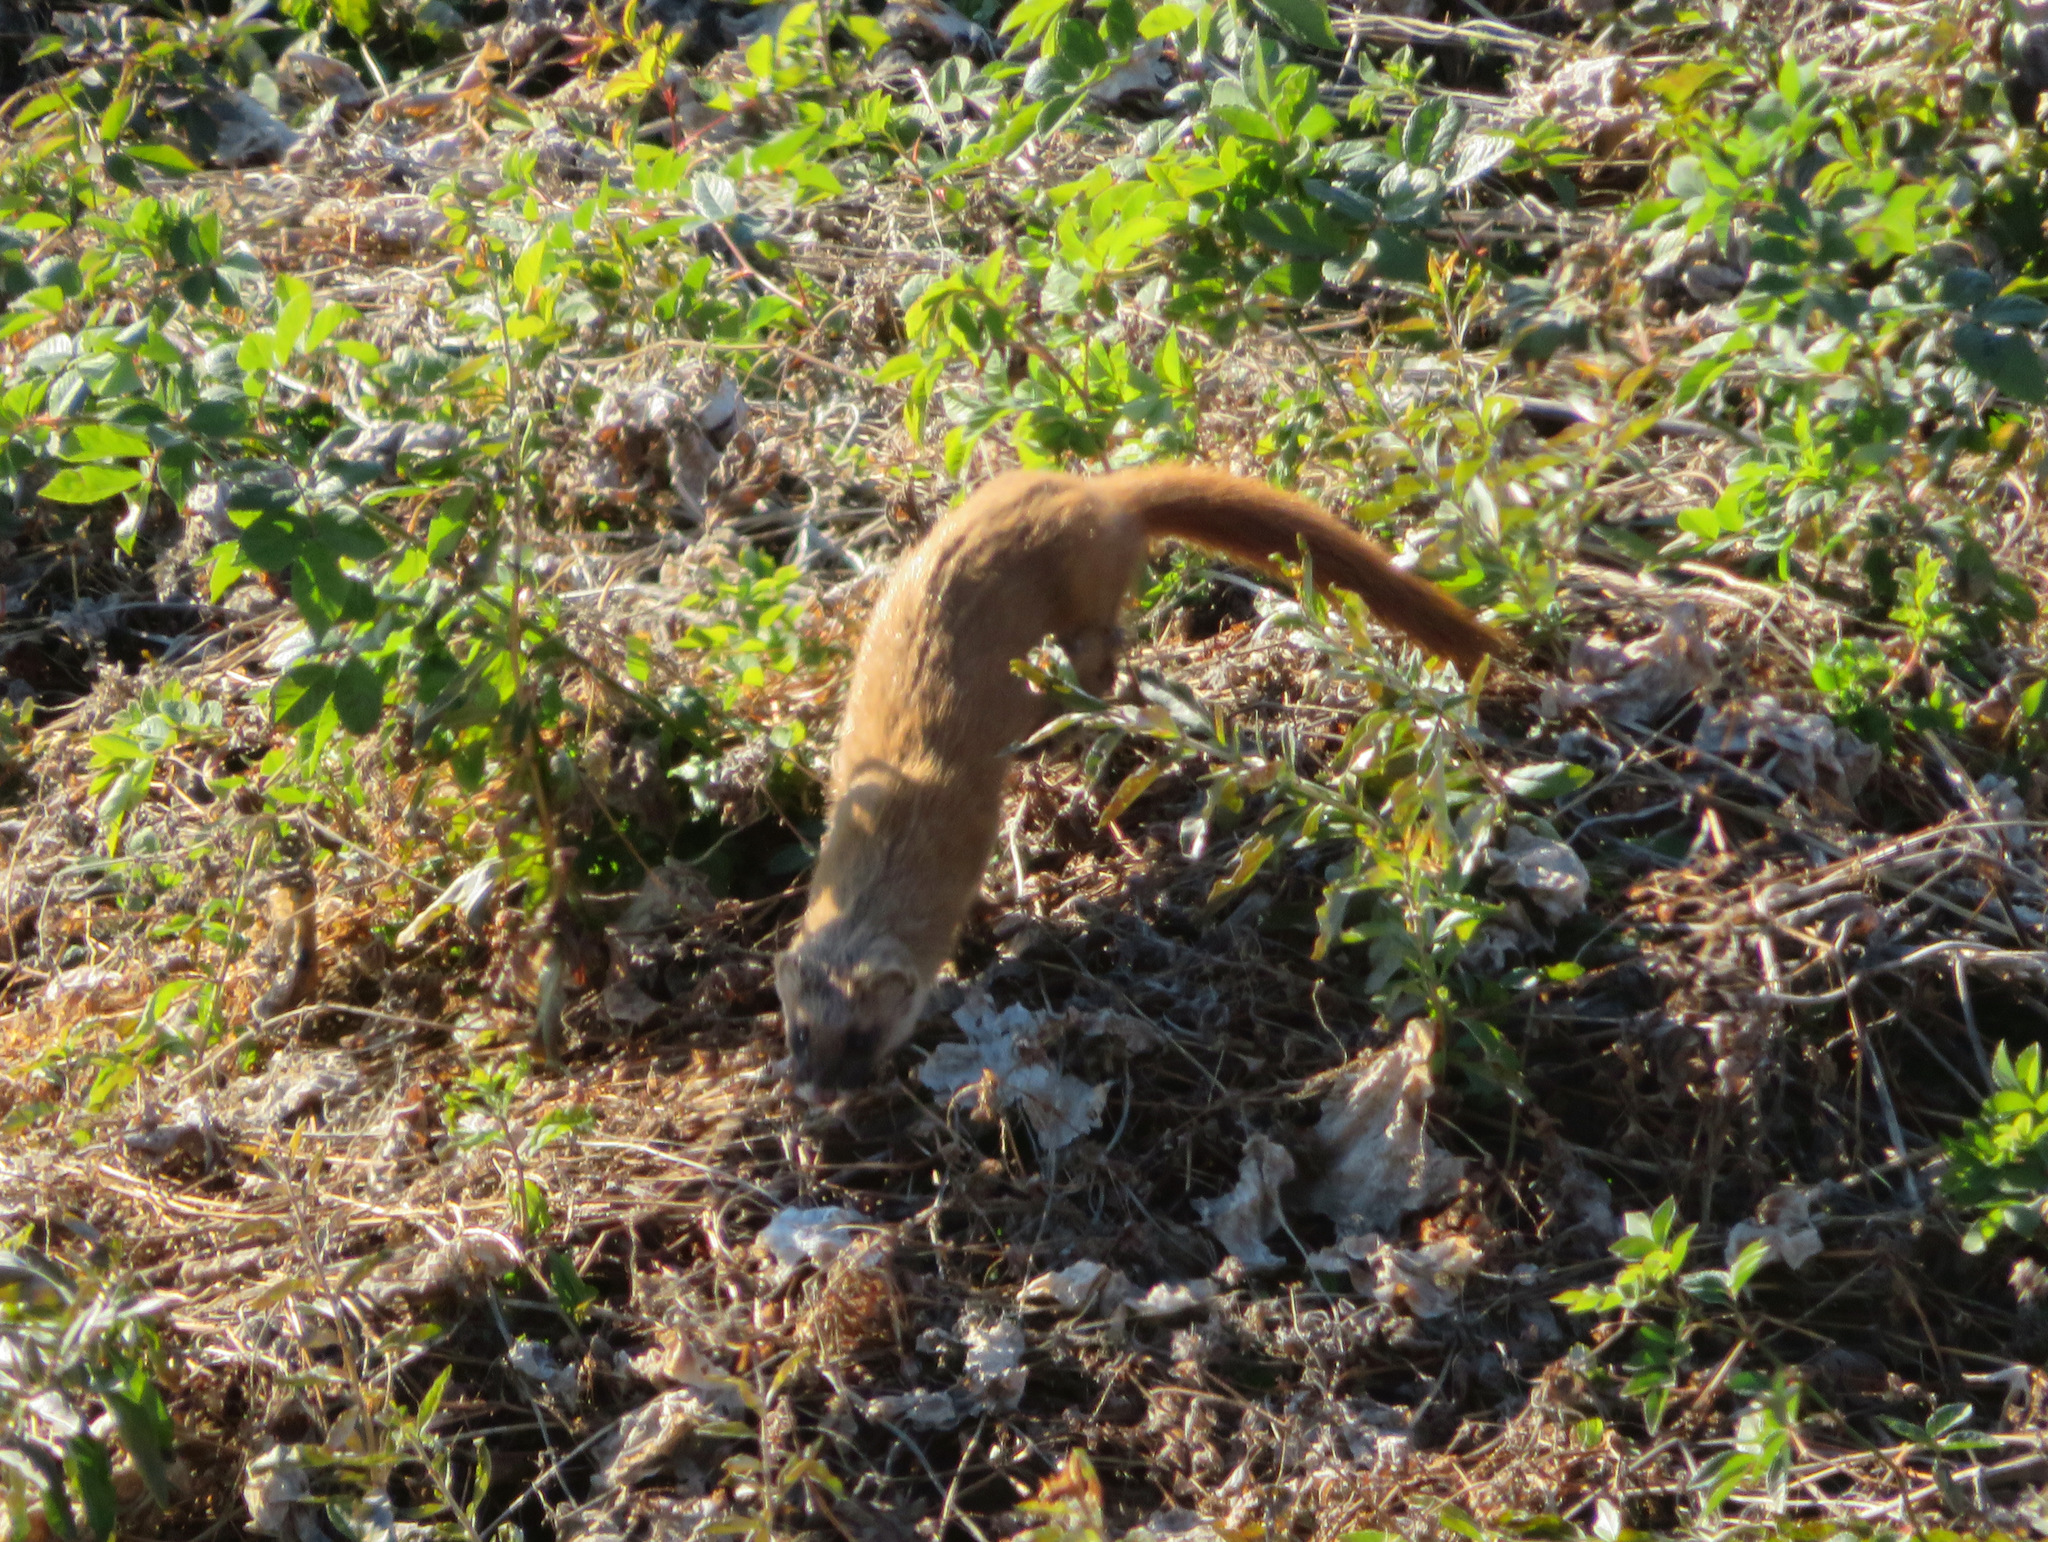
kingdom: Animalia
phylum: Chordata
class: Mammalia
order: Carnivora
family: Mustelidae
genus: Mustela
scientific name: Mustela itatsi
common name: Japanese weasel
